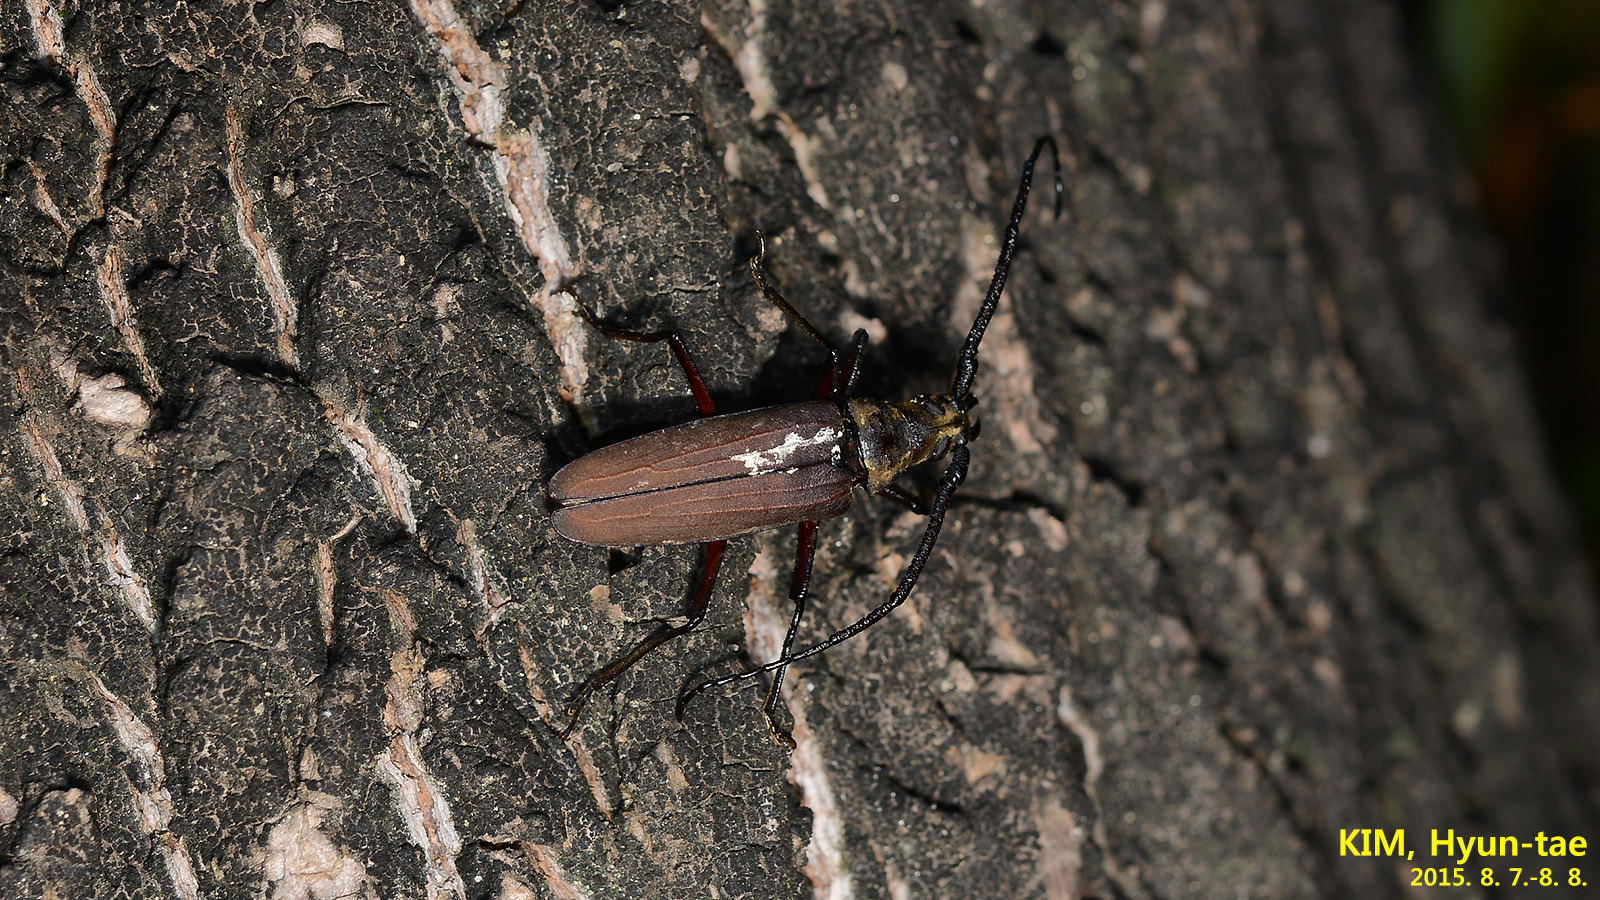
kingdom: Animalia
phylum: Arthropoda
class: Insecta
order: Coleoptera
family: Cerambycidae
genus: Aegosoma
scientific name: Aegosoma sinicum
